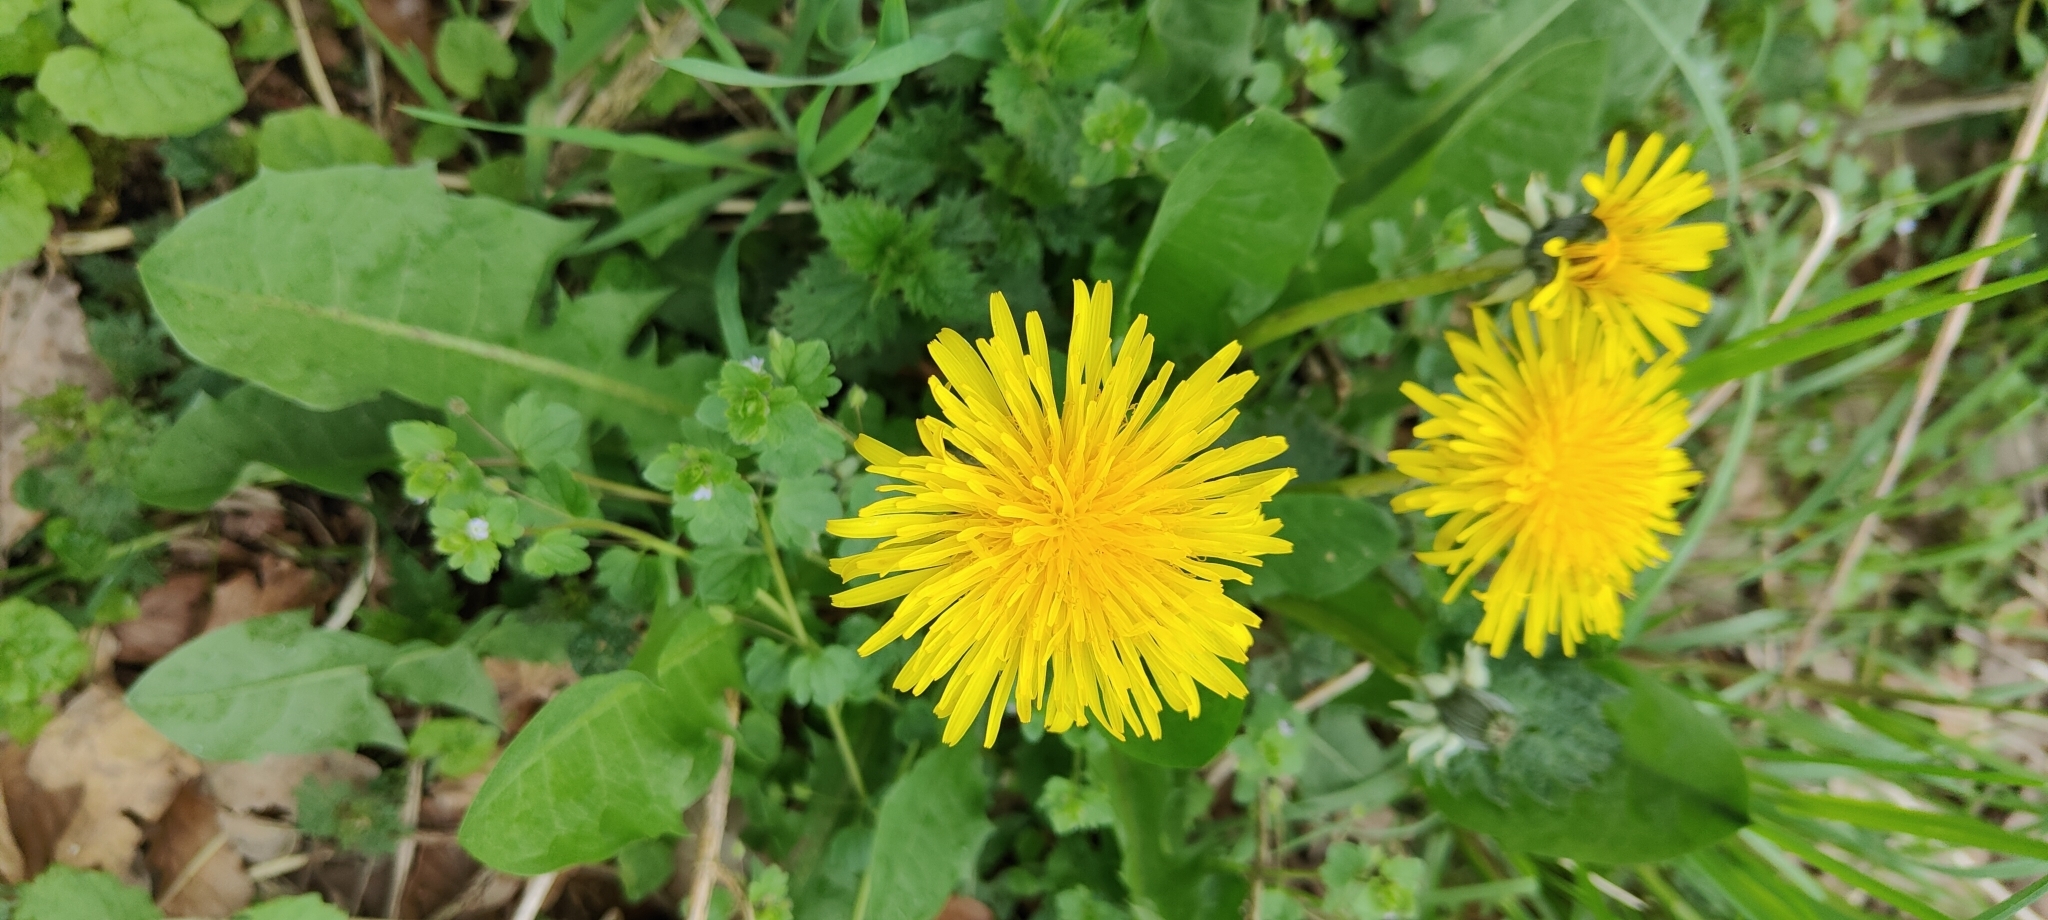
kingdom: Plantae
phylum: Tracheophyta
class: Magnoliopsida
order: Asterales
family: Asteraceae
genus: Taraxacum
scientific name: Taraxacum officinale
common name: Common dandelion
